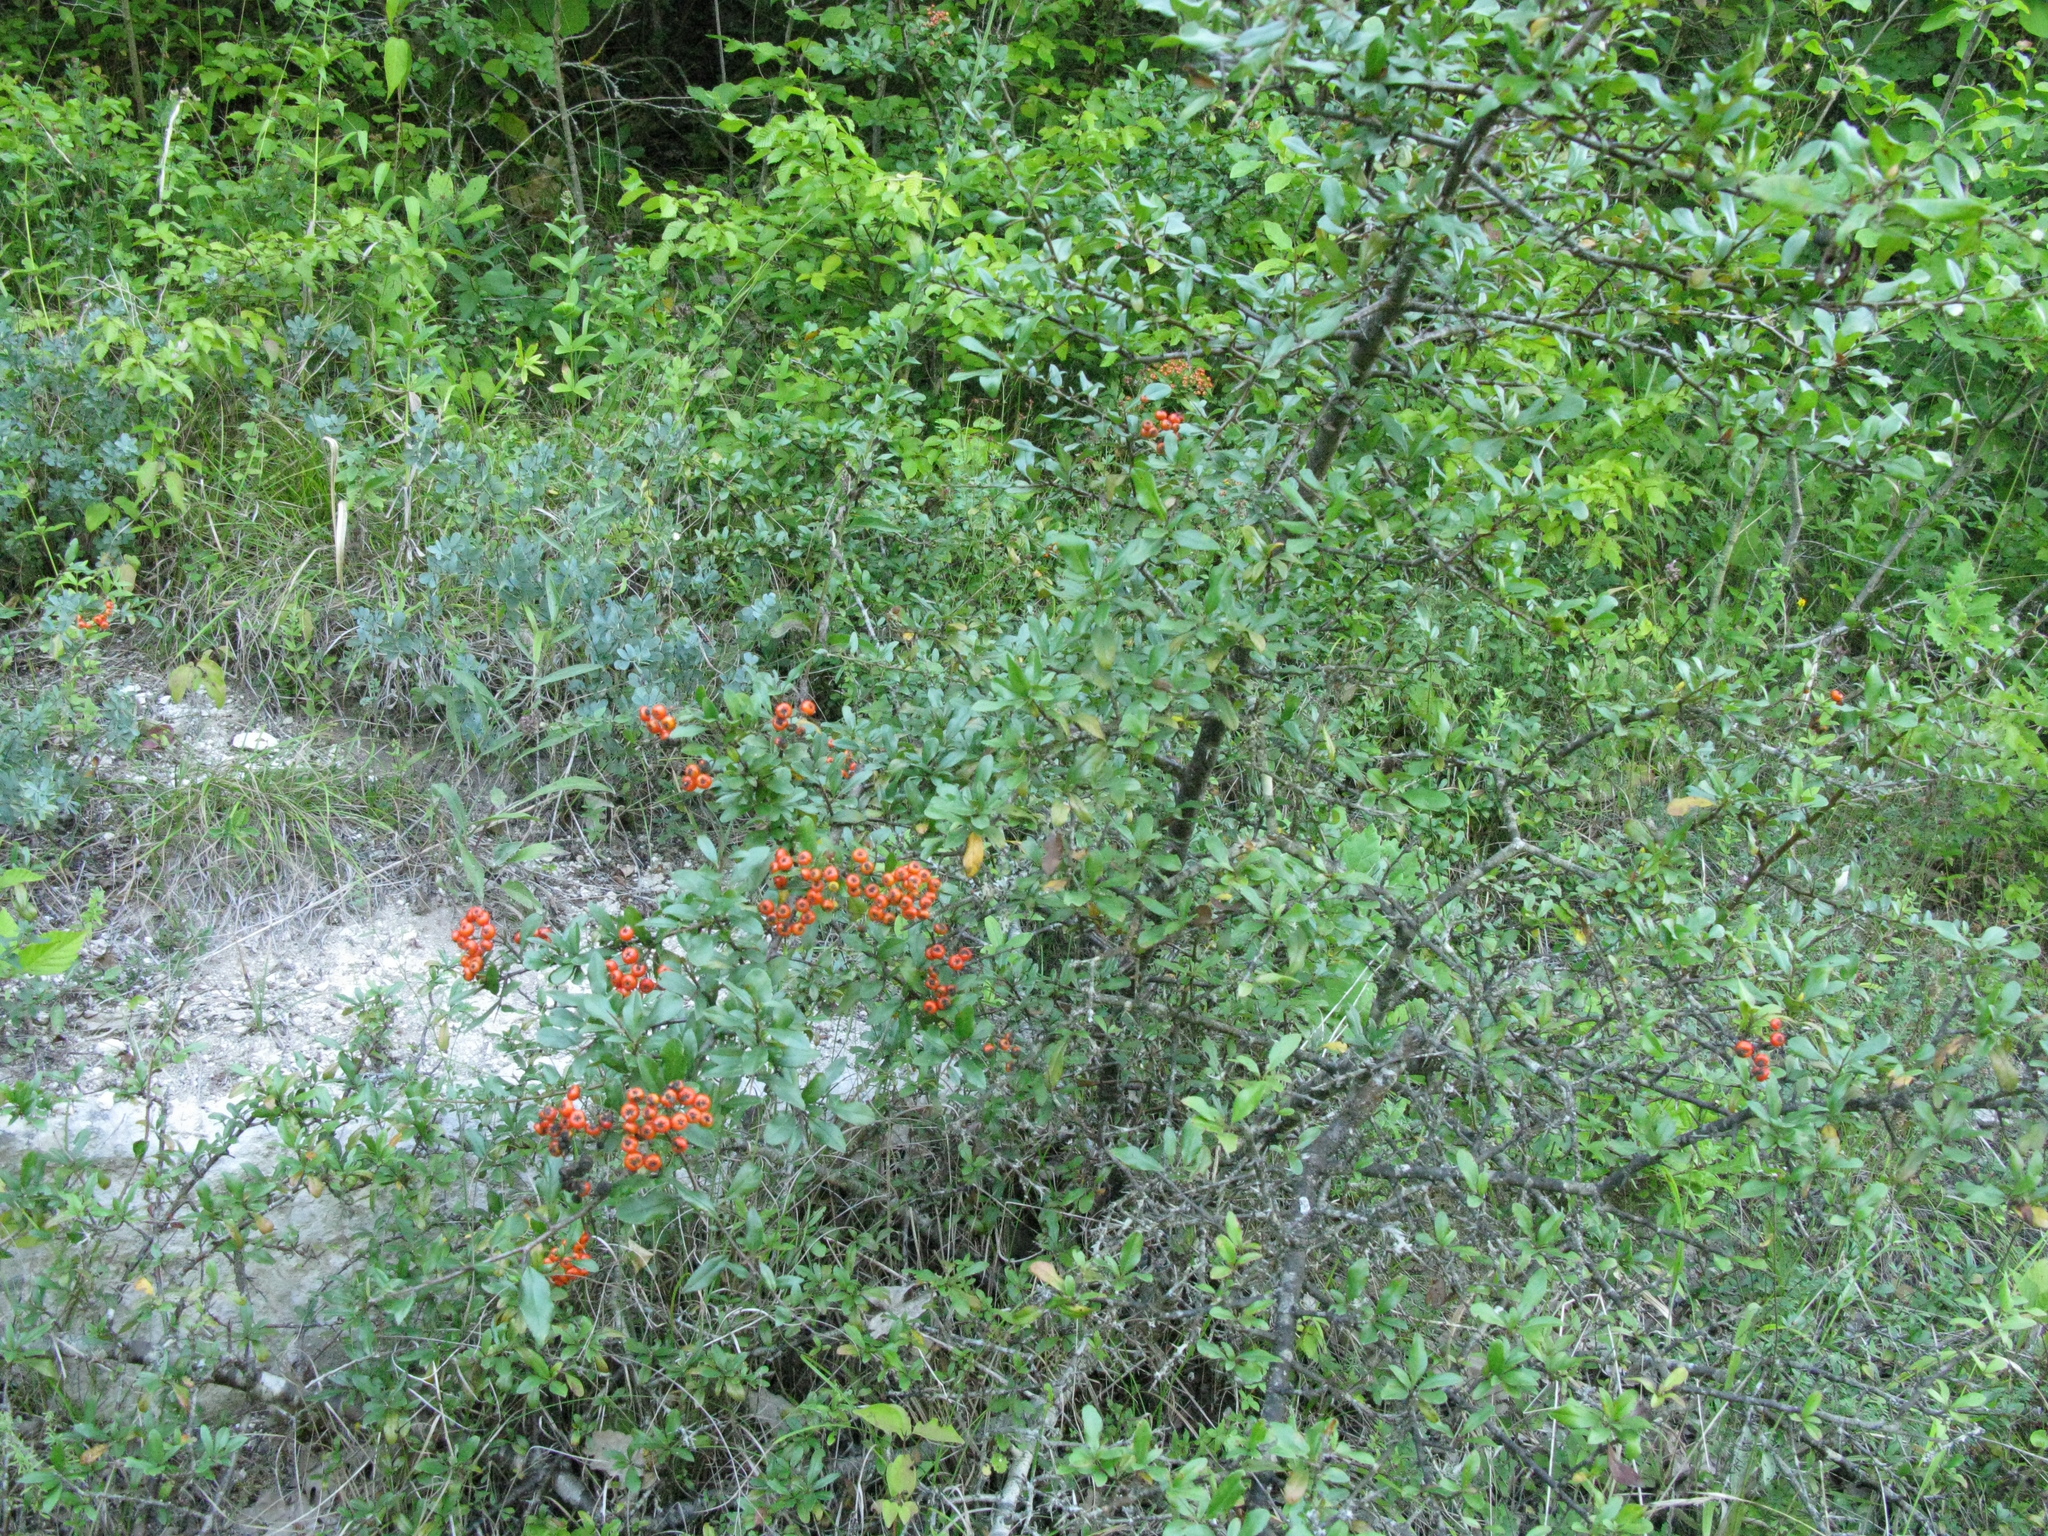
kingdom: Plantae
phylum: Tracheophyta
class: Magnoliopsida
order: Rosales
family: Rosaceae
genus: Pyracantha
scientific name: Pyracantha coccinea
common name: Firethorn
